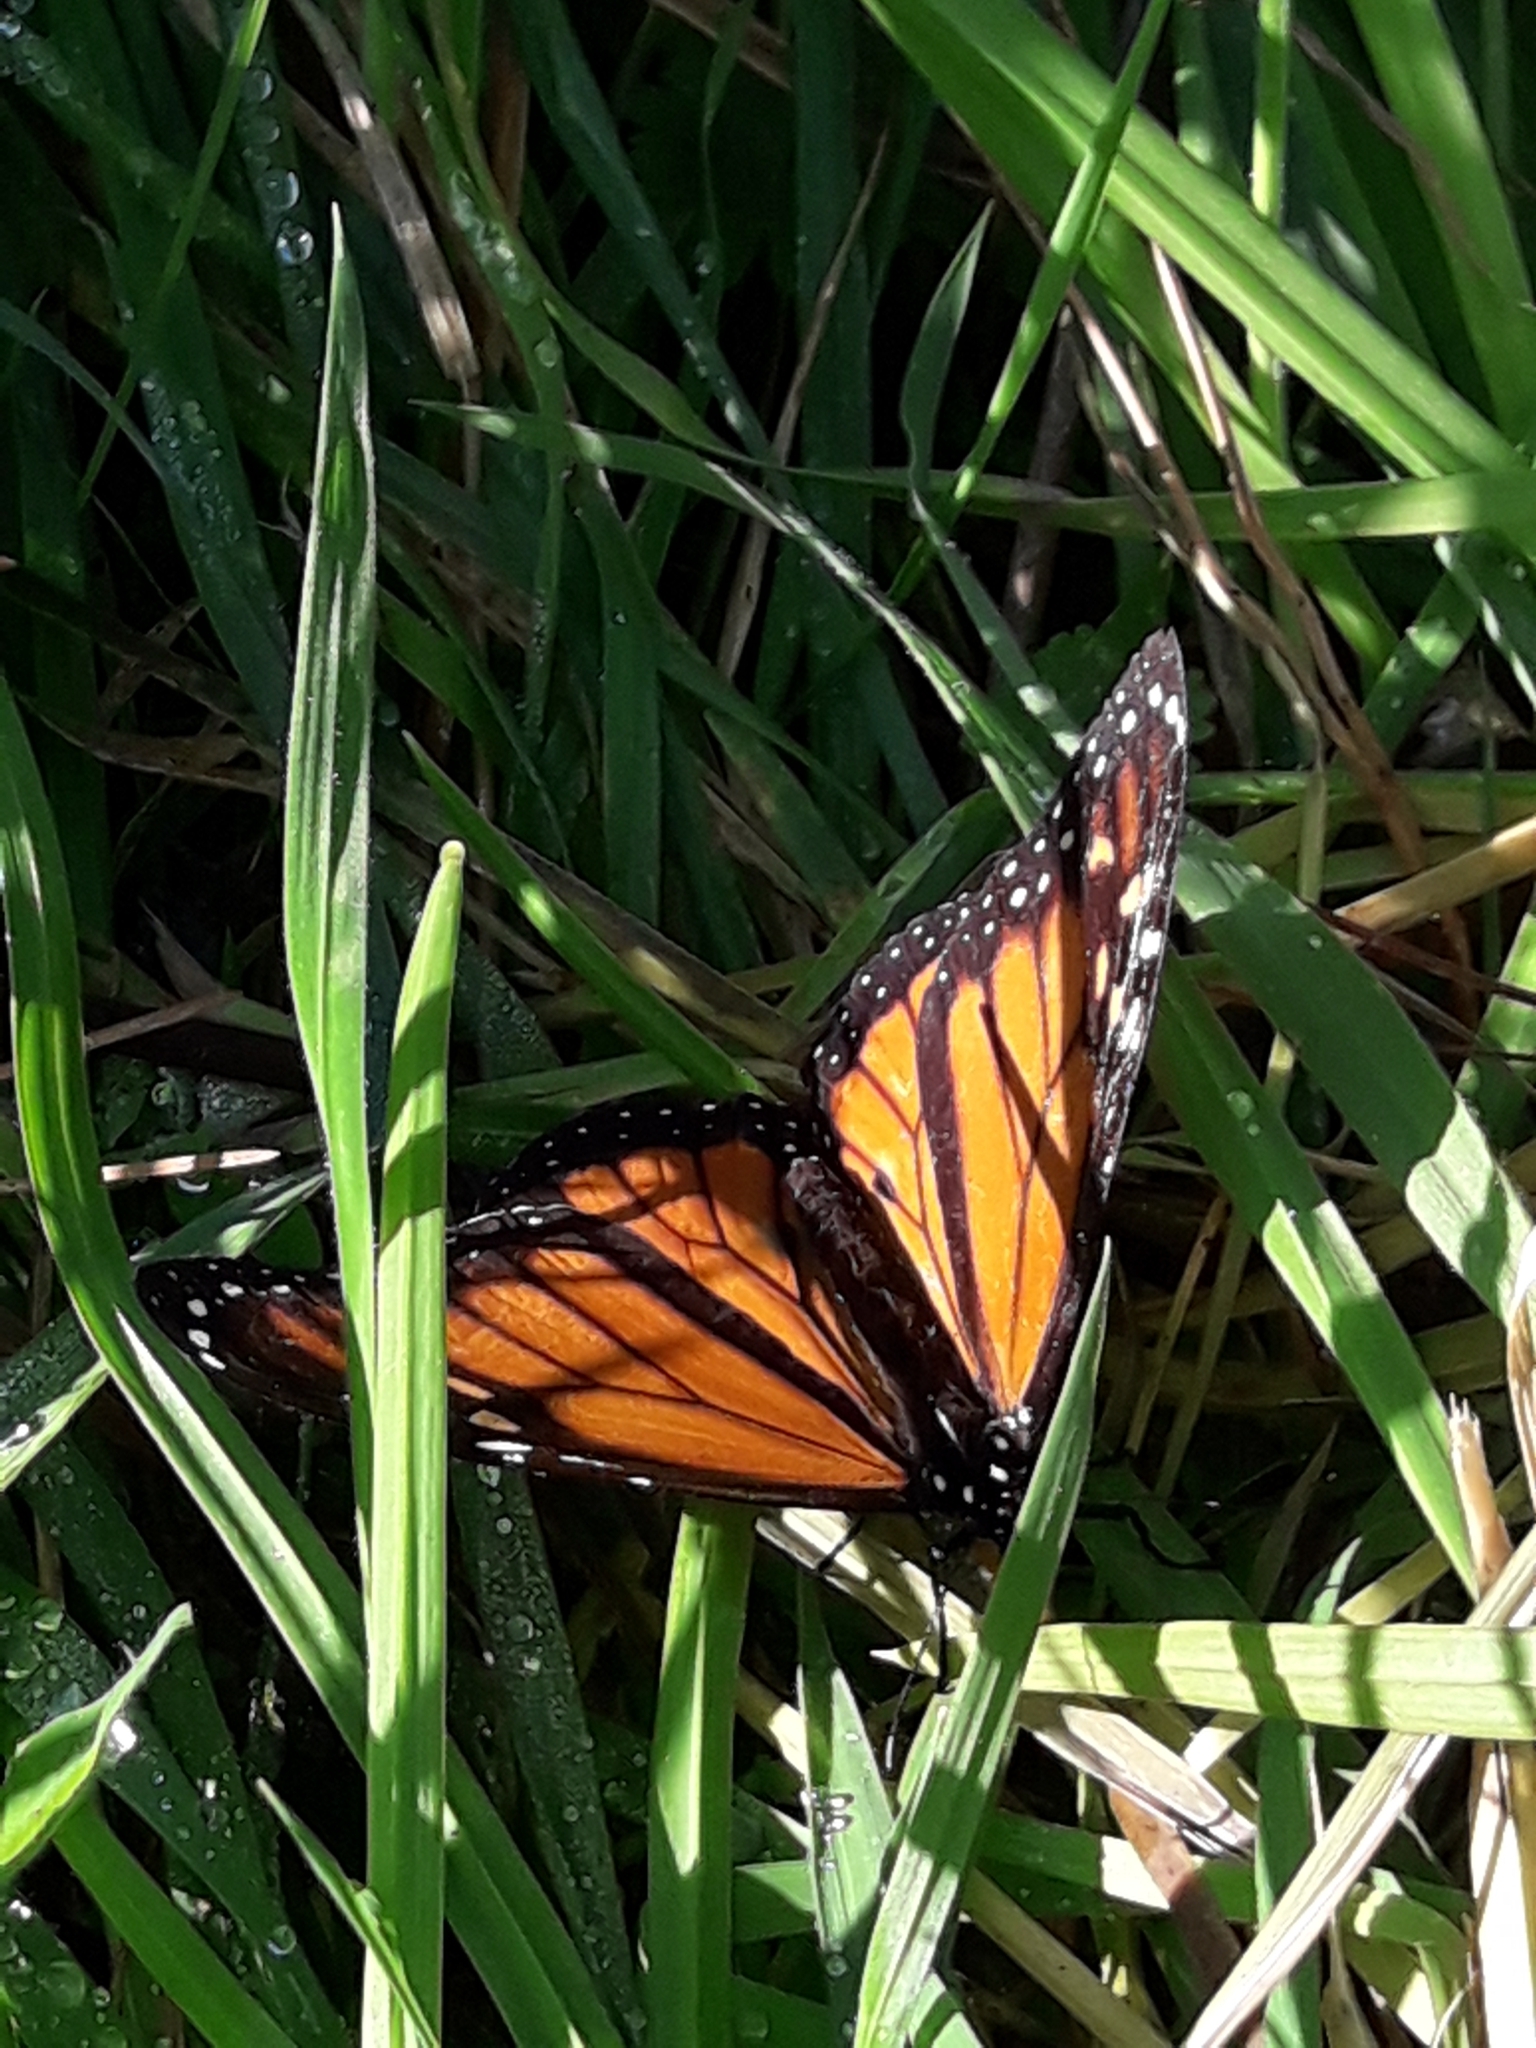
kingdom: Animalia
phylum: Arthropoda
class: Insecta
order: Lepidoptera
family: Nymphalidae
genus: Danaus
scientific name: Danaus plexippus
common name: Monarch
